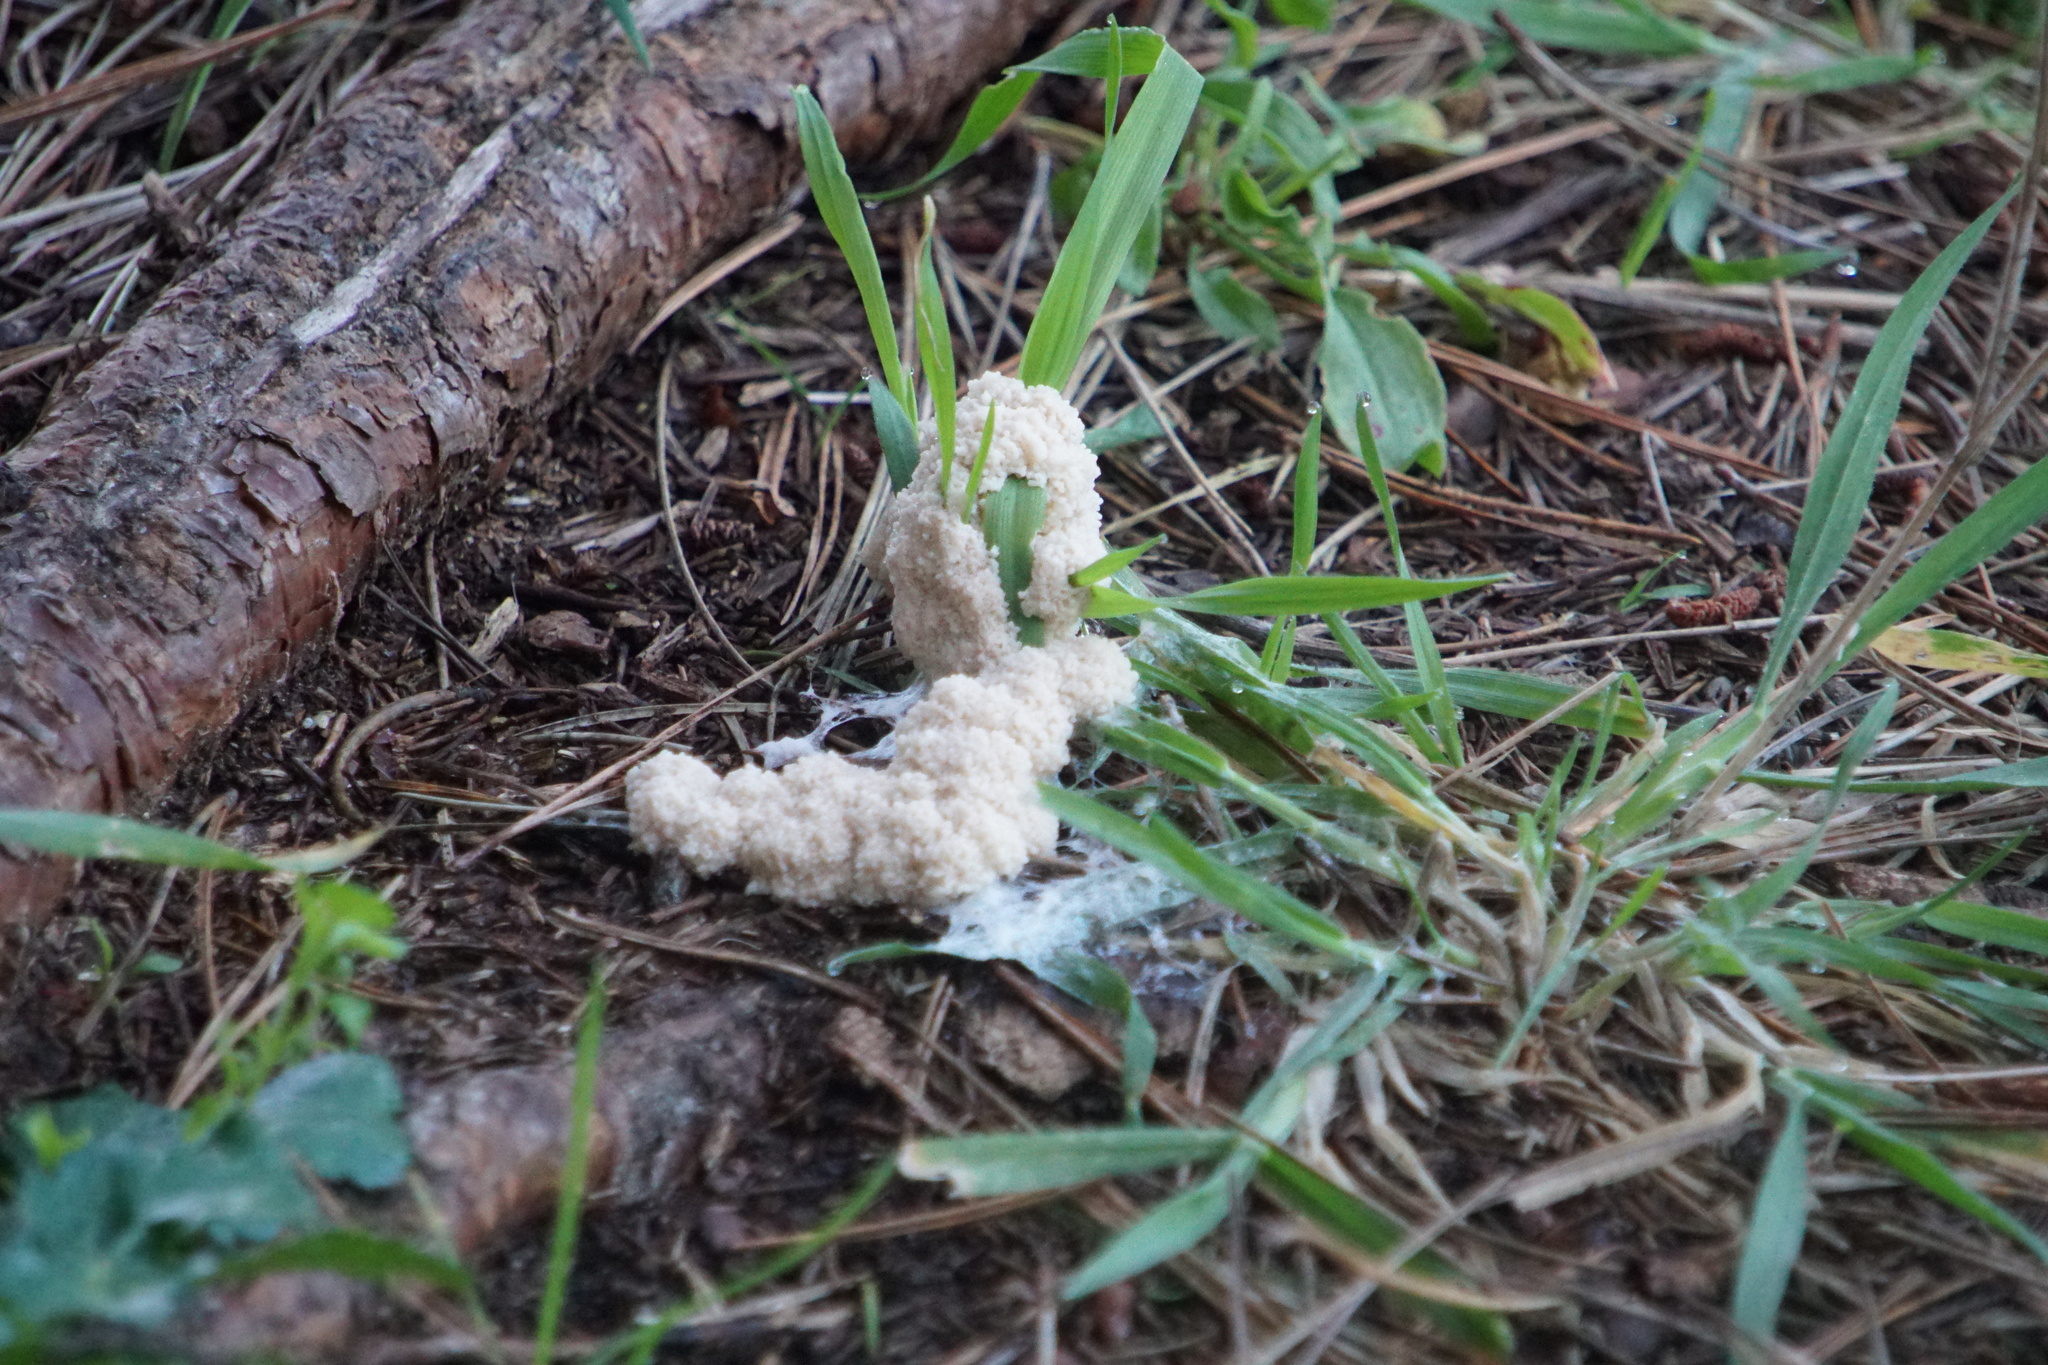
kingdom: Protozoa
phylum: Mycetozoa
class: Myxomycetes
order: Physarales
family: Physaraceae
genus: Didymium
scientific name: Didymium
